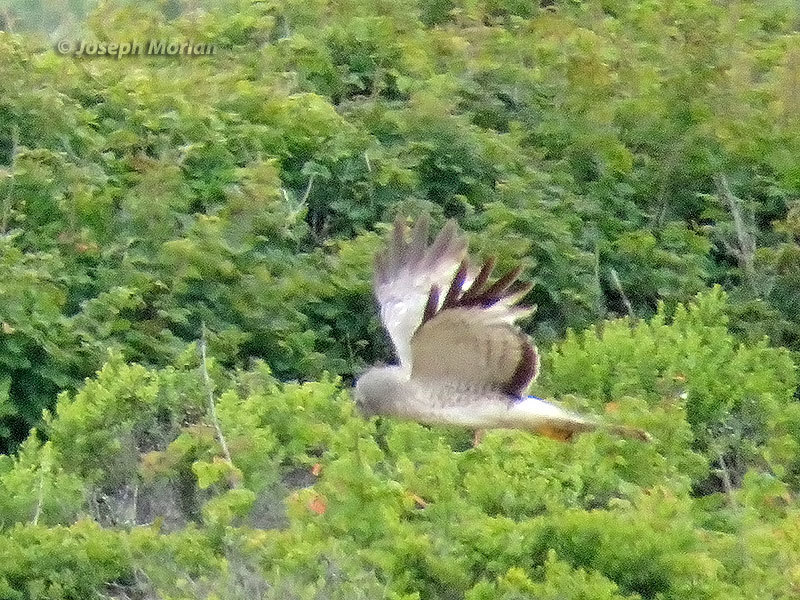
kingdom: Animalia
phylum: Chordata
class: Aves
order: Accipitriformes
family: Accipitridae
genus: Circus
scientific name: Circus cyaneus
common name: Hen harrier
